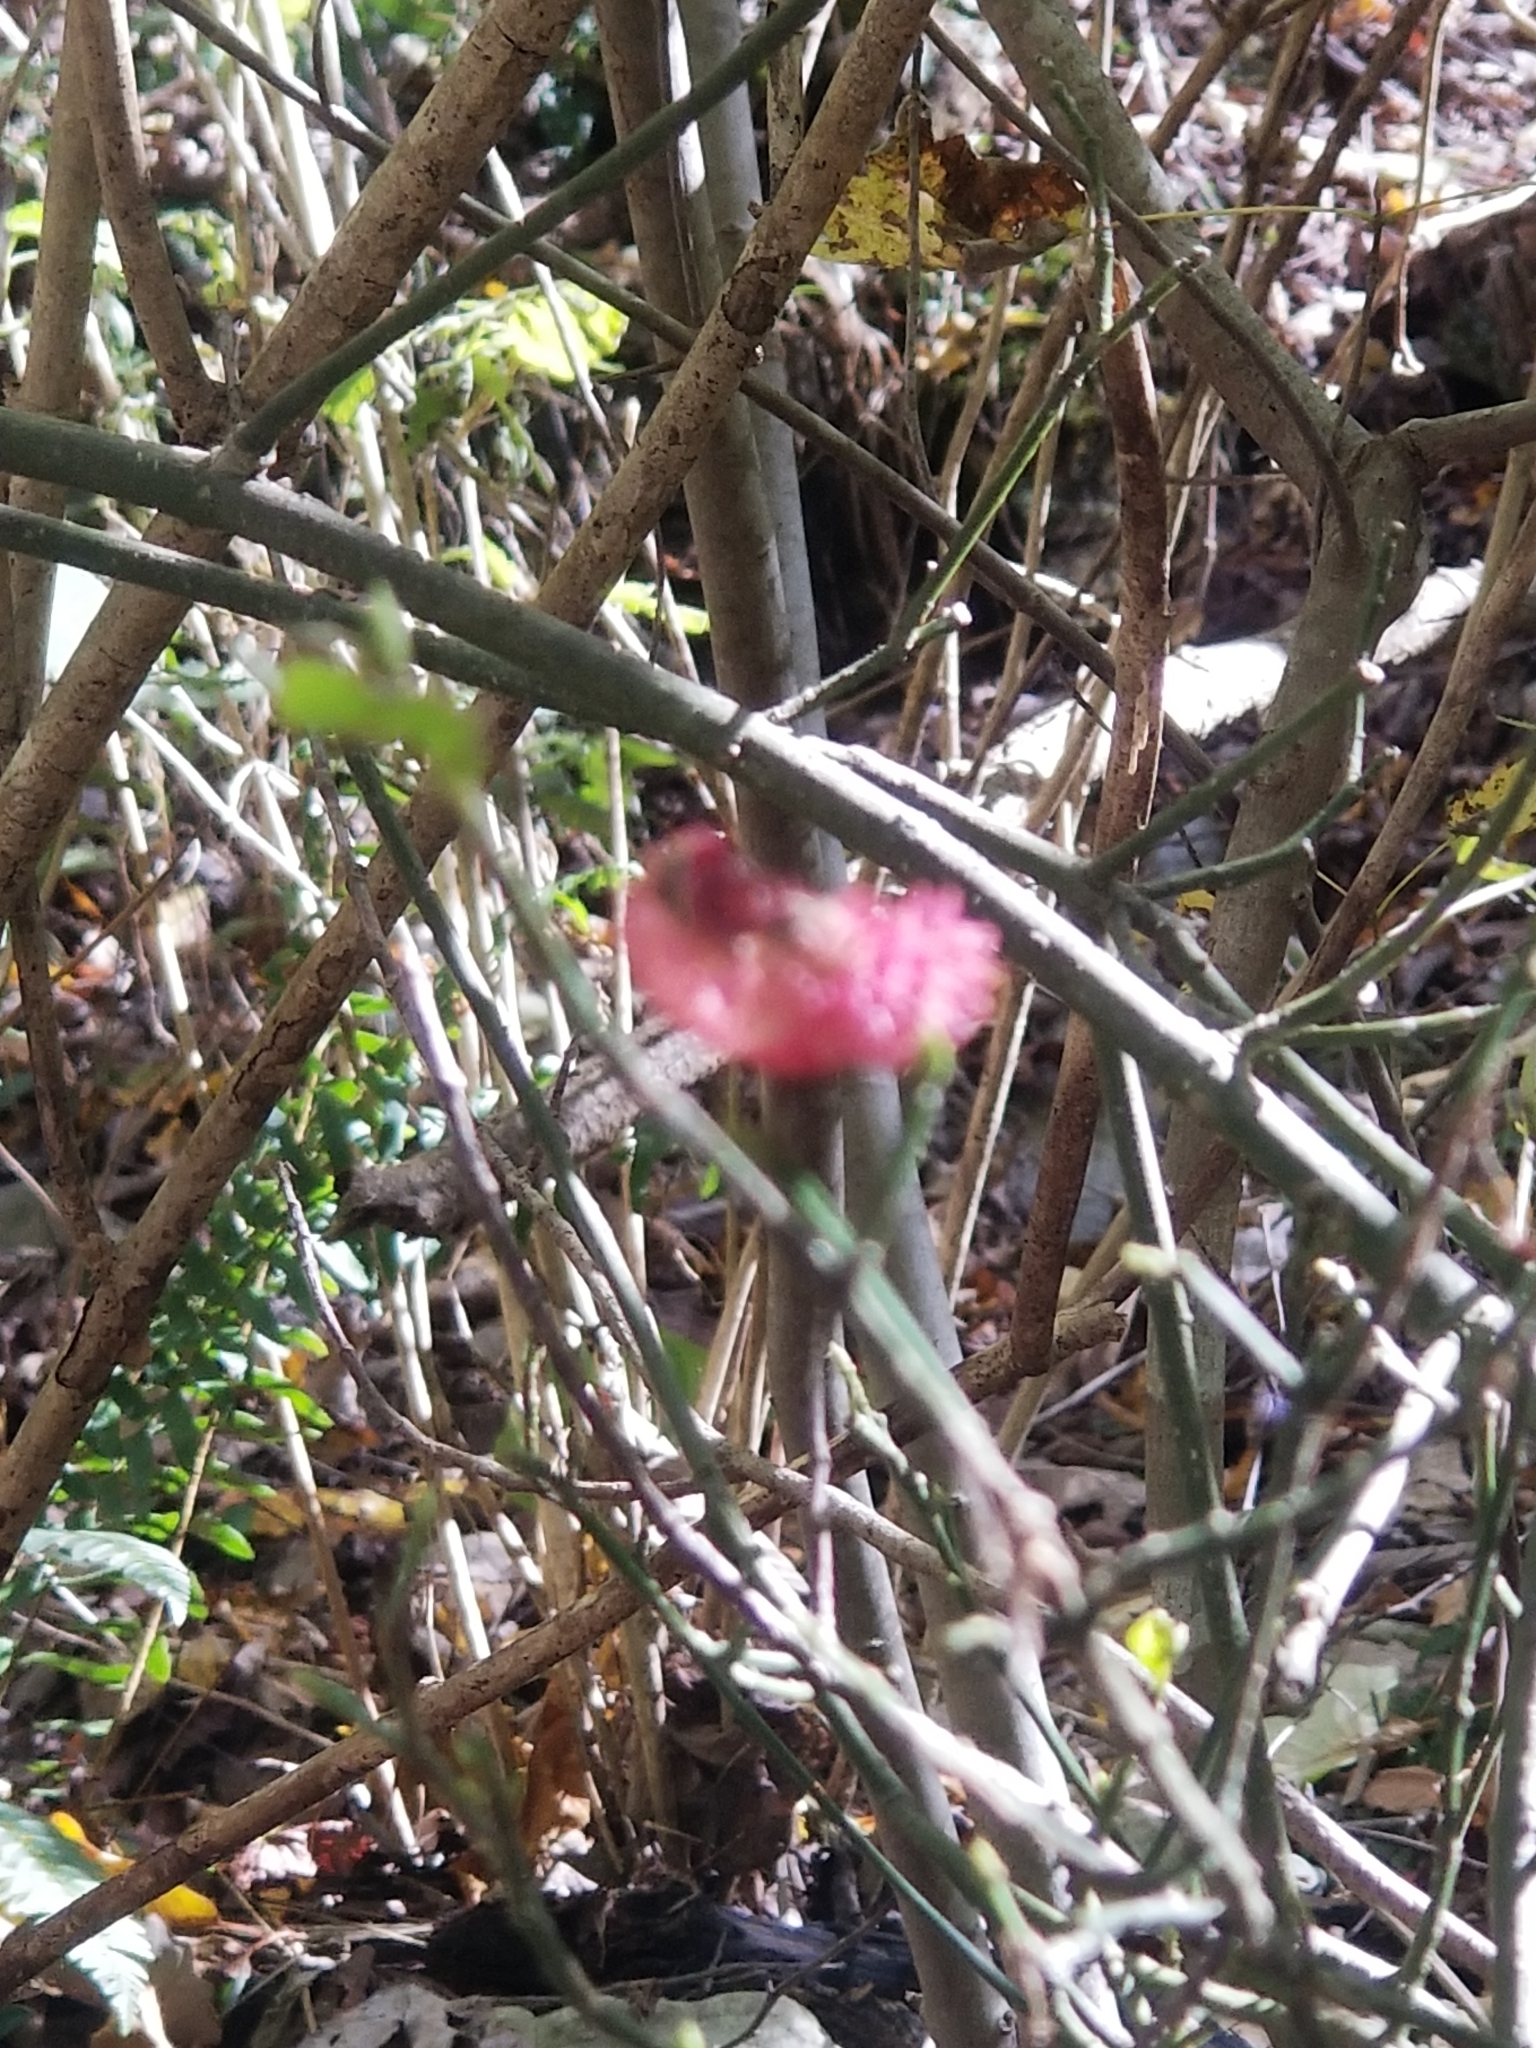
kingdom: Plantae
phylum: Tracheophyta
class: Magnoliopsida
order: Celastrales
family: Celastraceae
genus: Euonymus
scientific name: Euonymus americanus
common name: Bursting-heart
